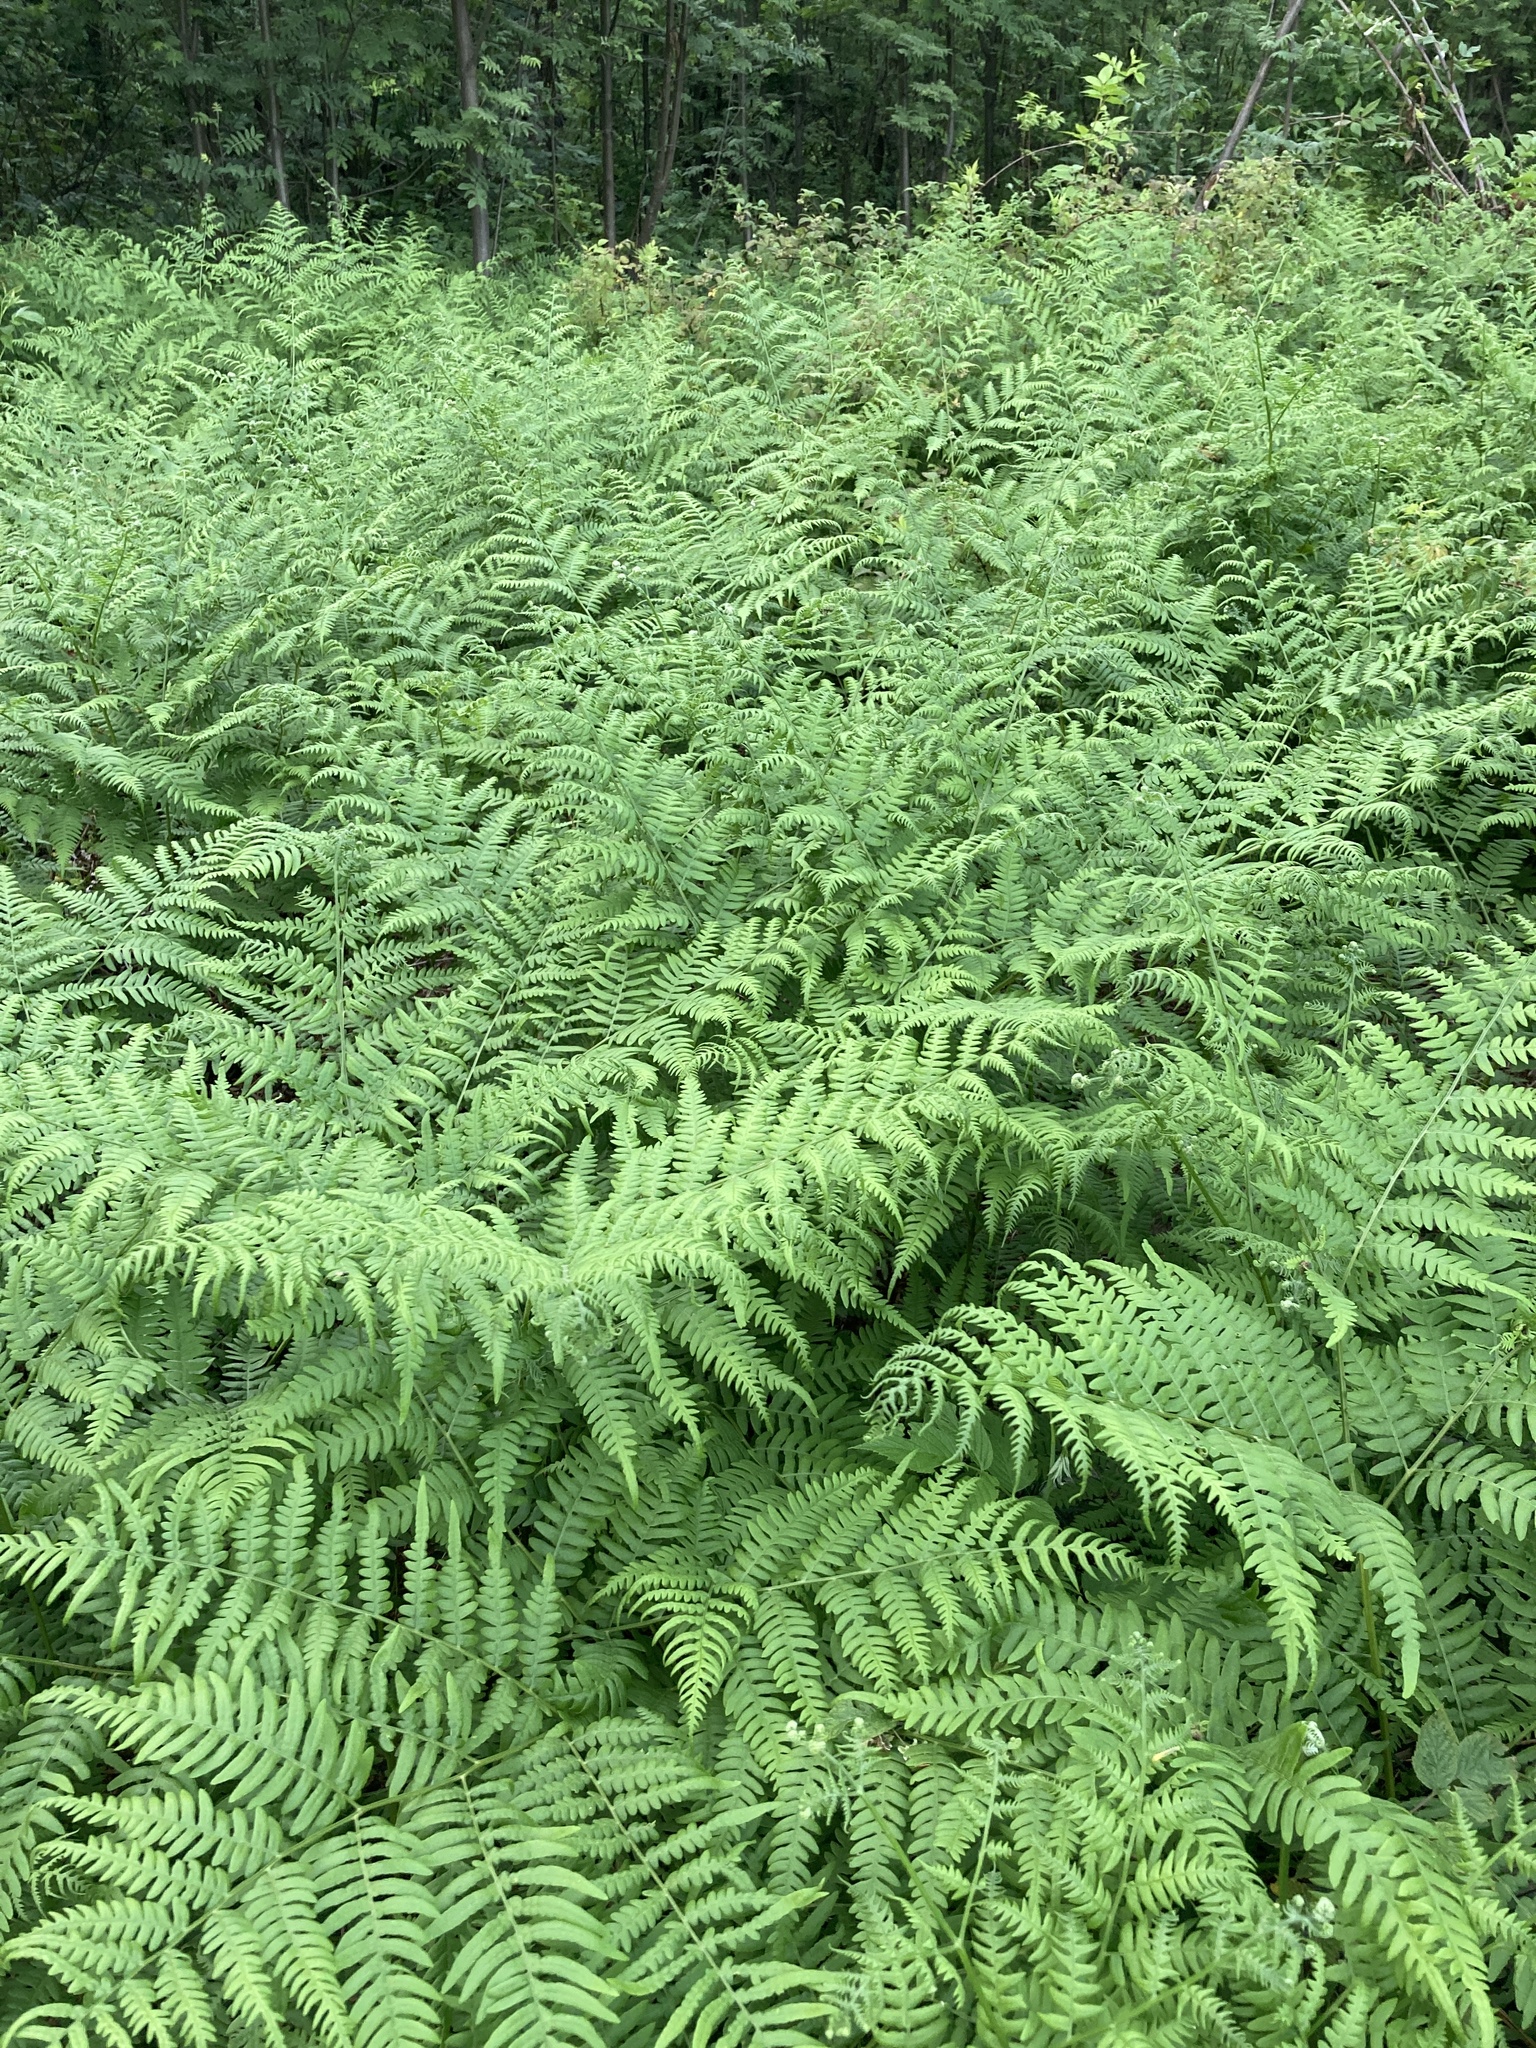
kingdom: Plantae
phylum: Tracheophyta
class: Polypodiopsida
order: Polypodiales
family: Dennstaedtiaceae
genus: Pteridium
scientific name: Pteridium aquilinum
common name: Bracken
